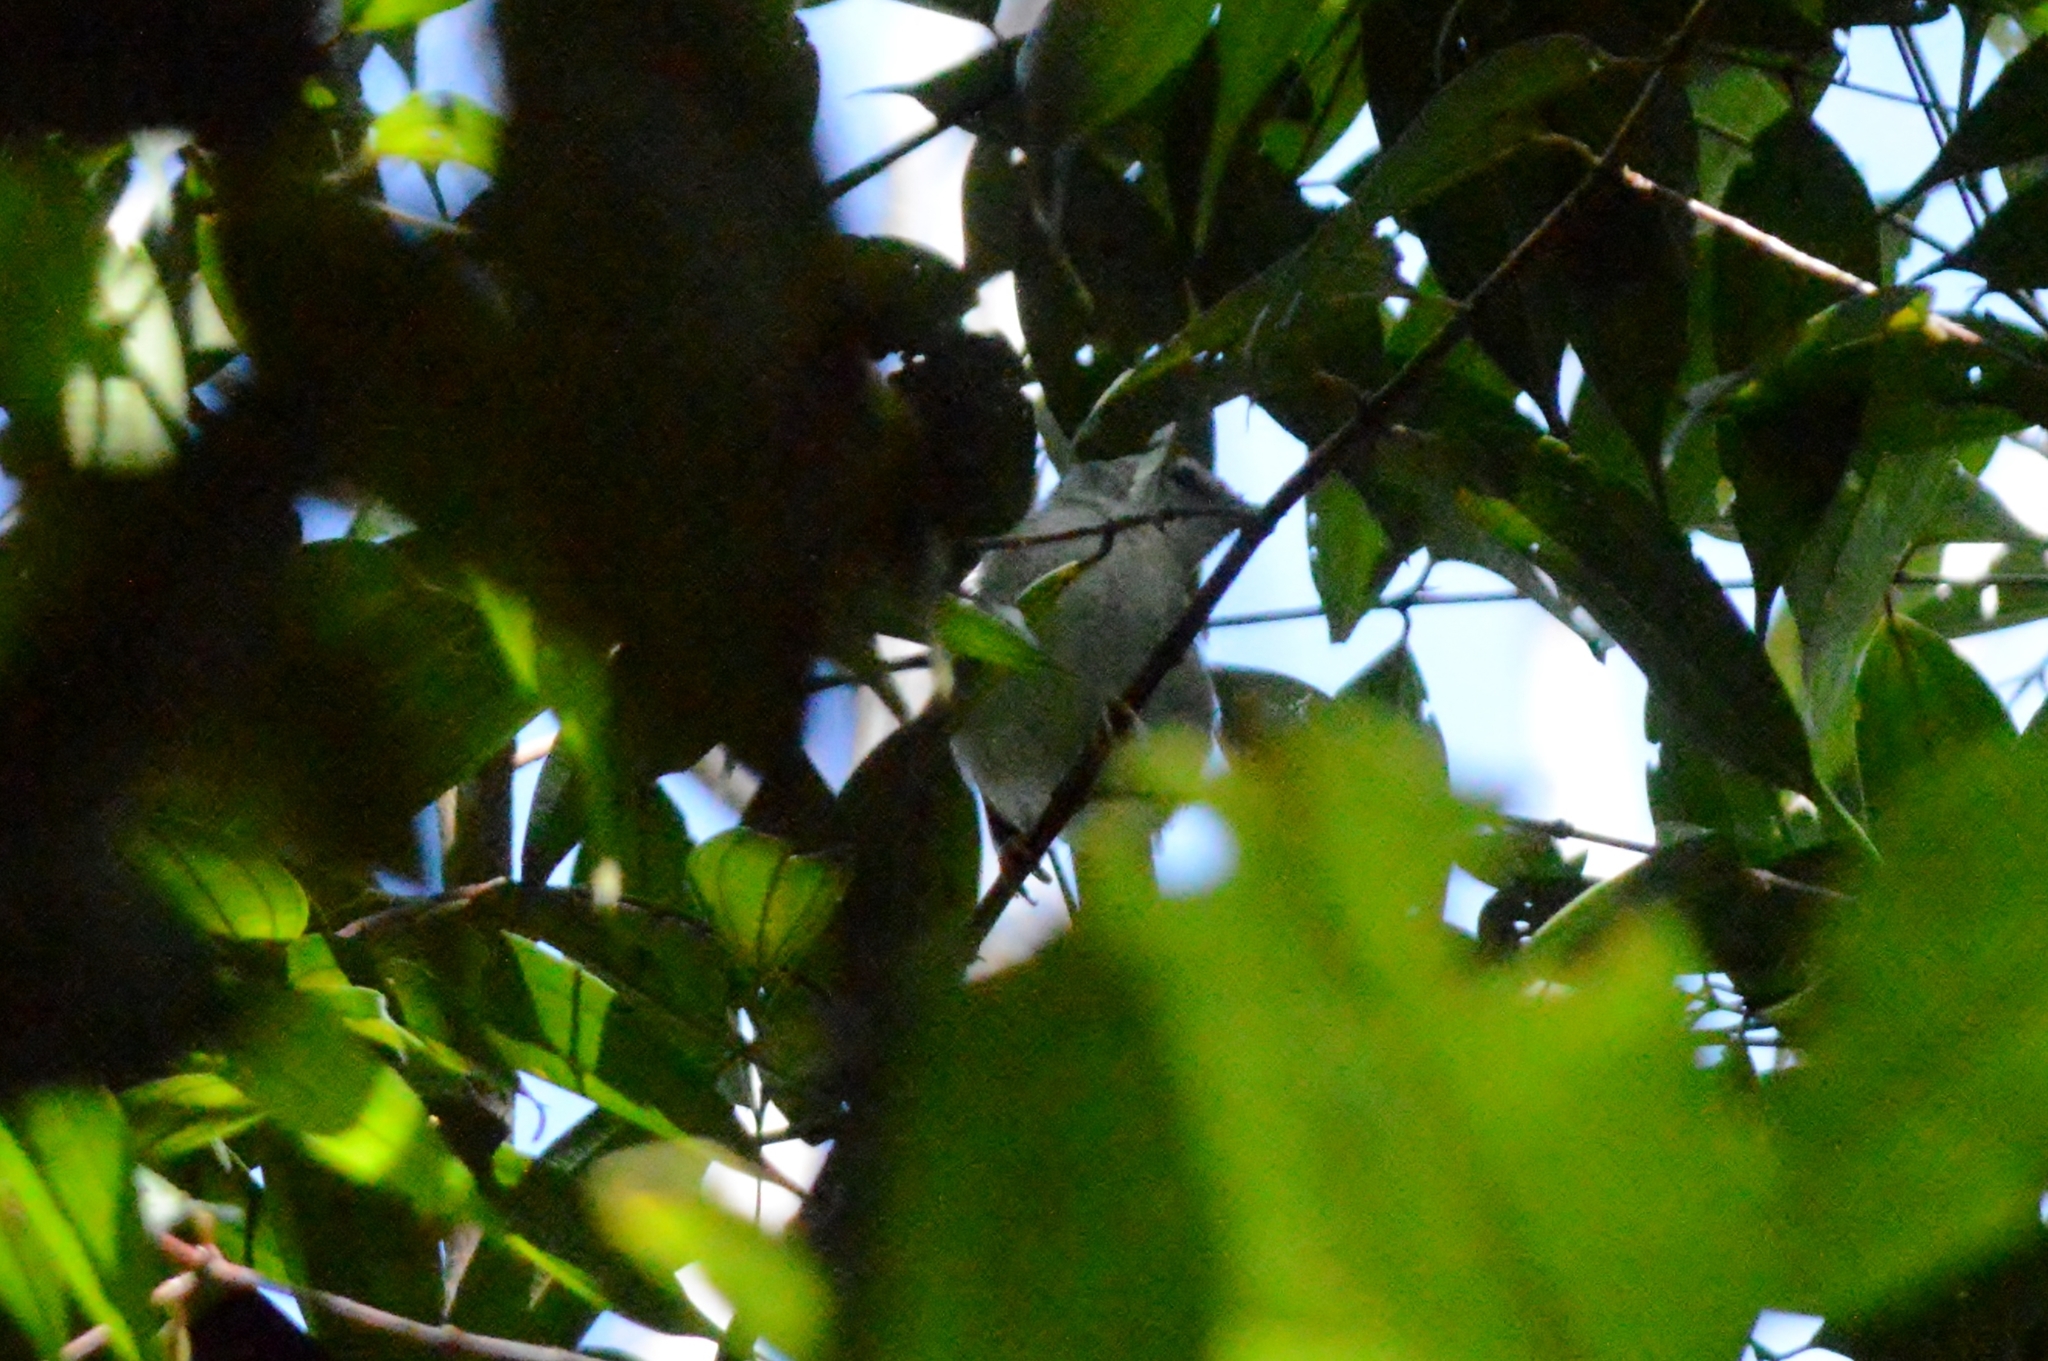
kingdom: Animalia
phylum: Chordata
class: Aves
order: Passeriformes
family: Parulidae
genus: Basileuterus
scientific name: Basileuterus culicivorus
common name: Golden-crowned warbler
